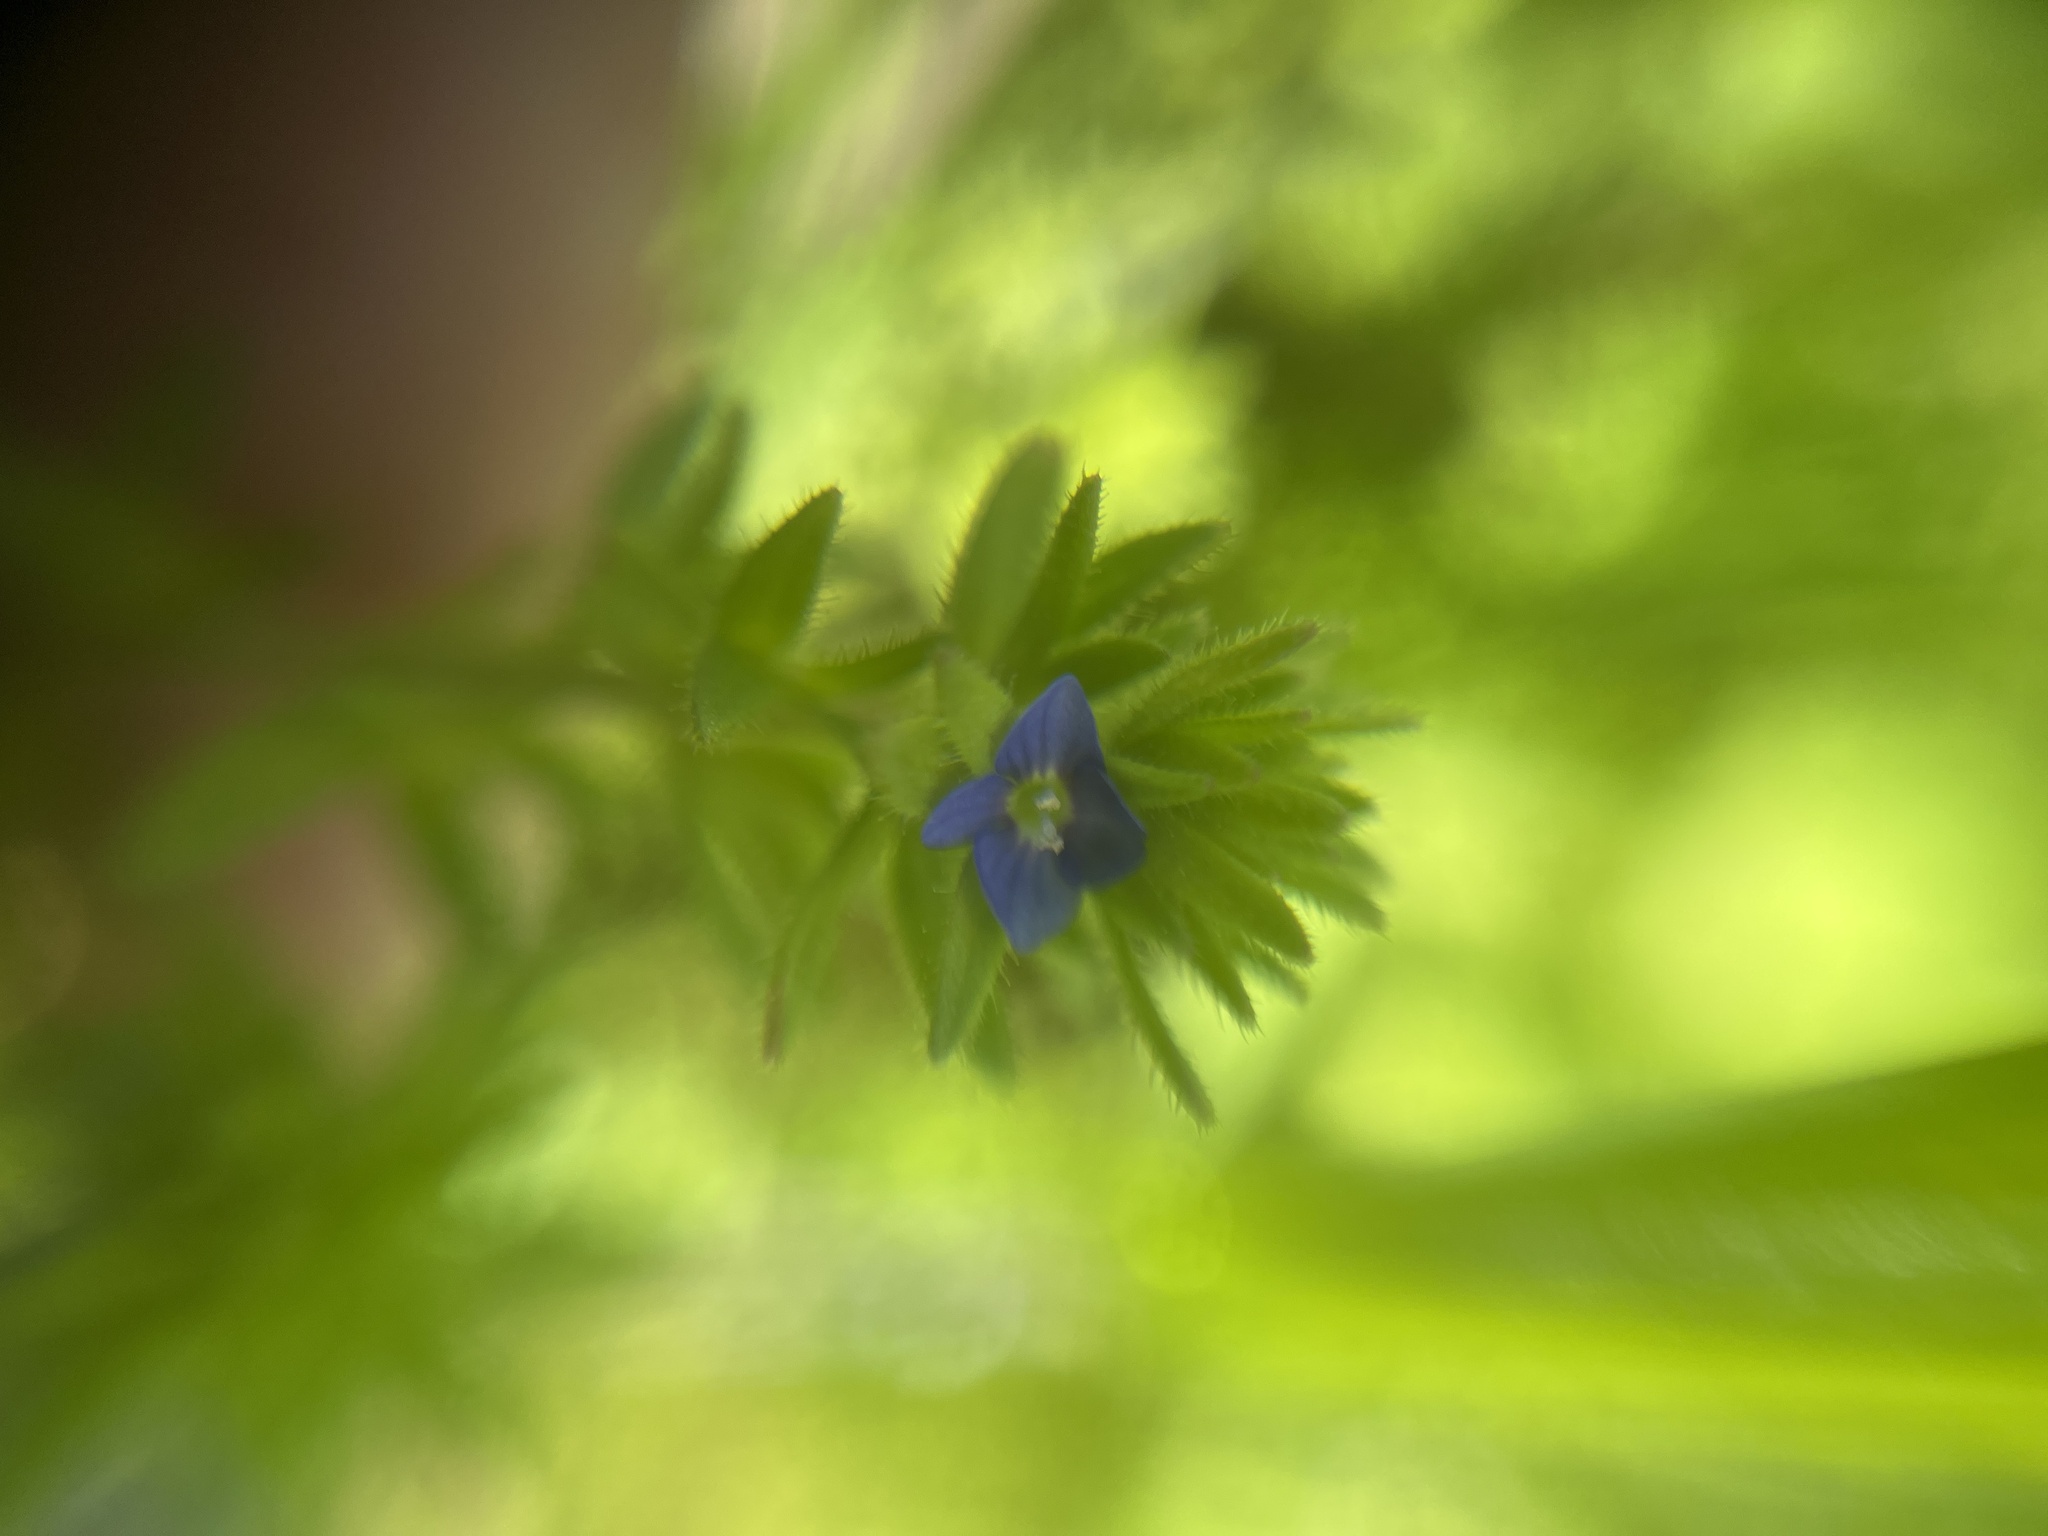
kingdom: Plantae
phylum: Tracheophyta
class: Magnoliopsida
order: Lamiales
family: Plantaginaceae
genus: Veronica
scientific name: Veronica arvensis
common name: Corn speedwell
